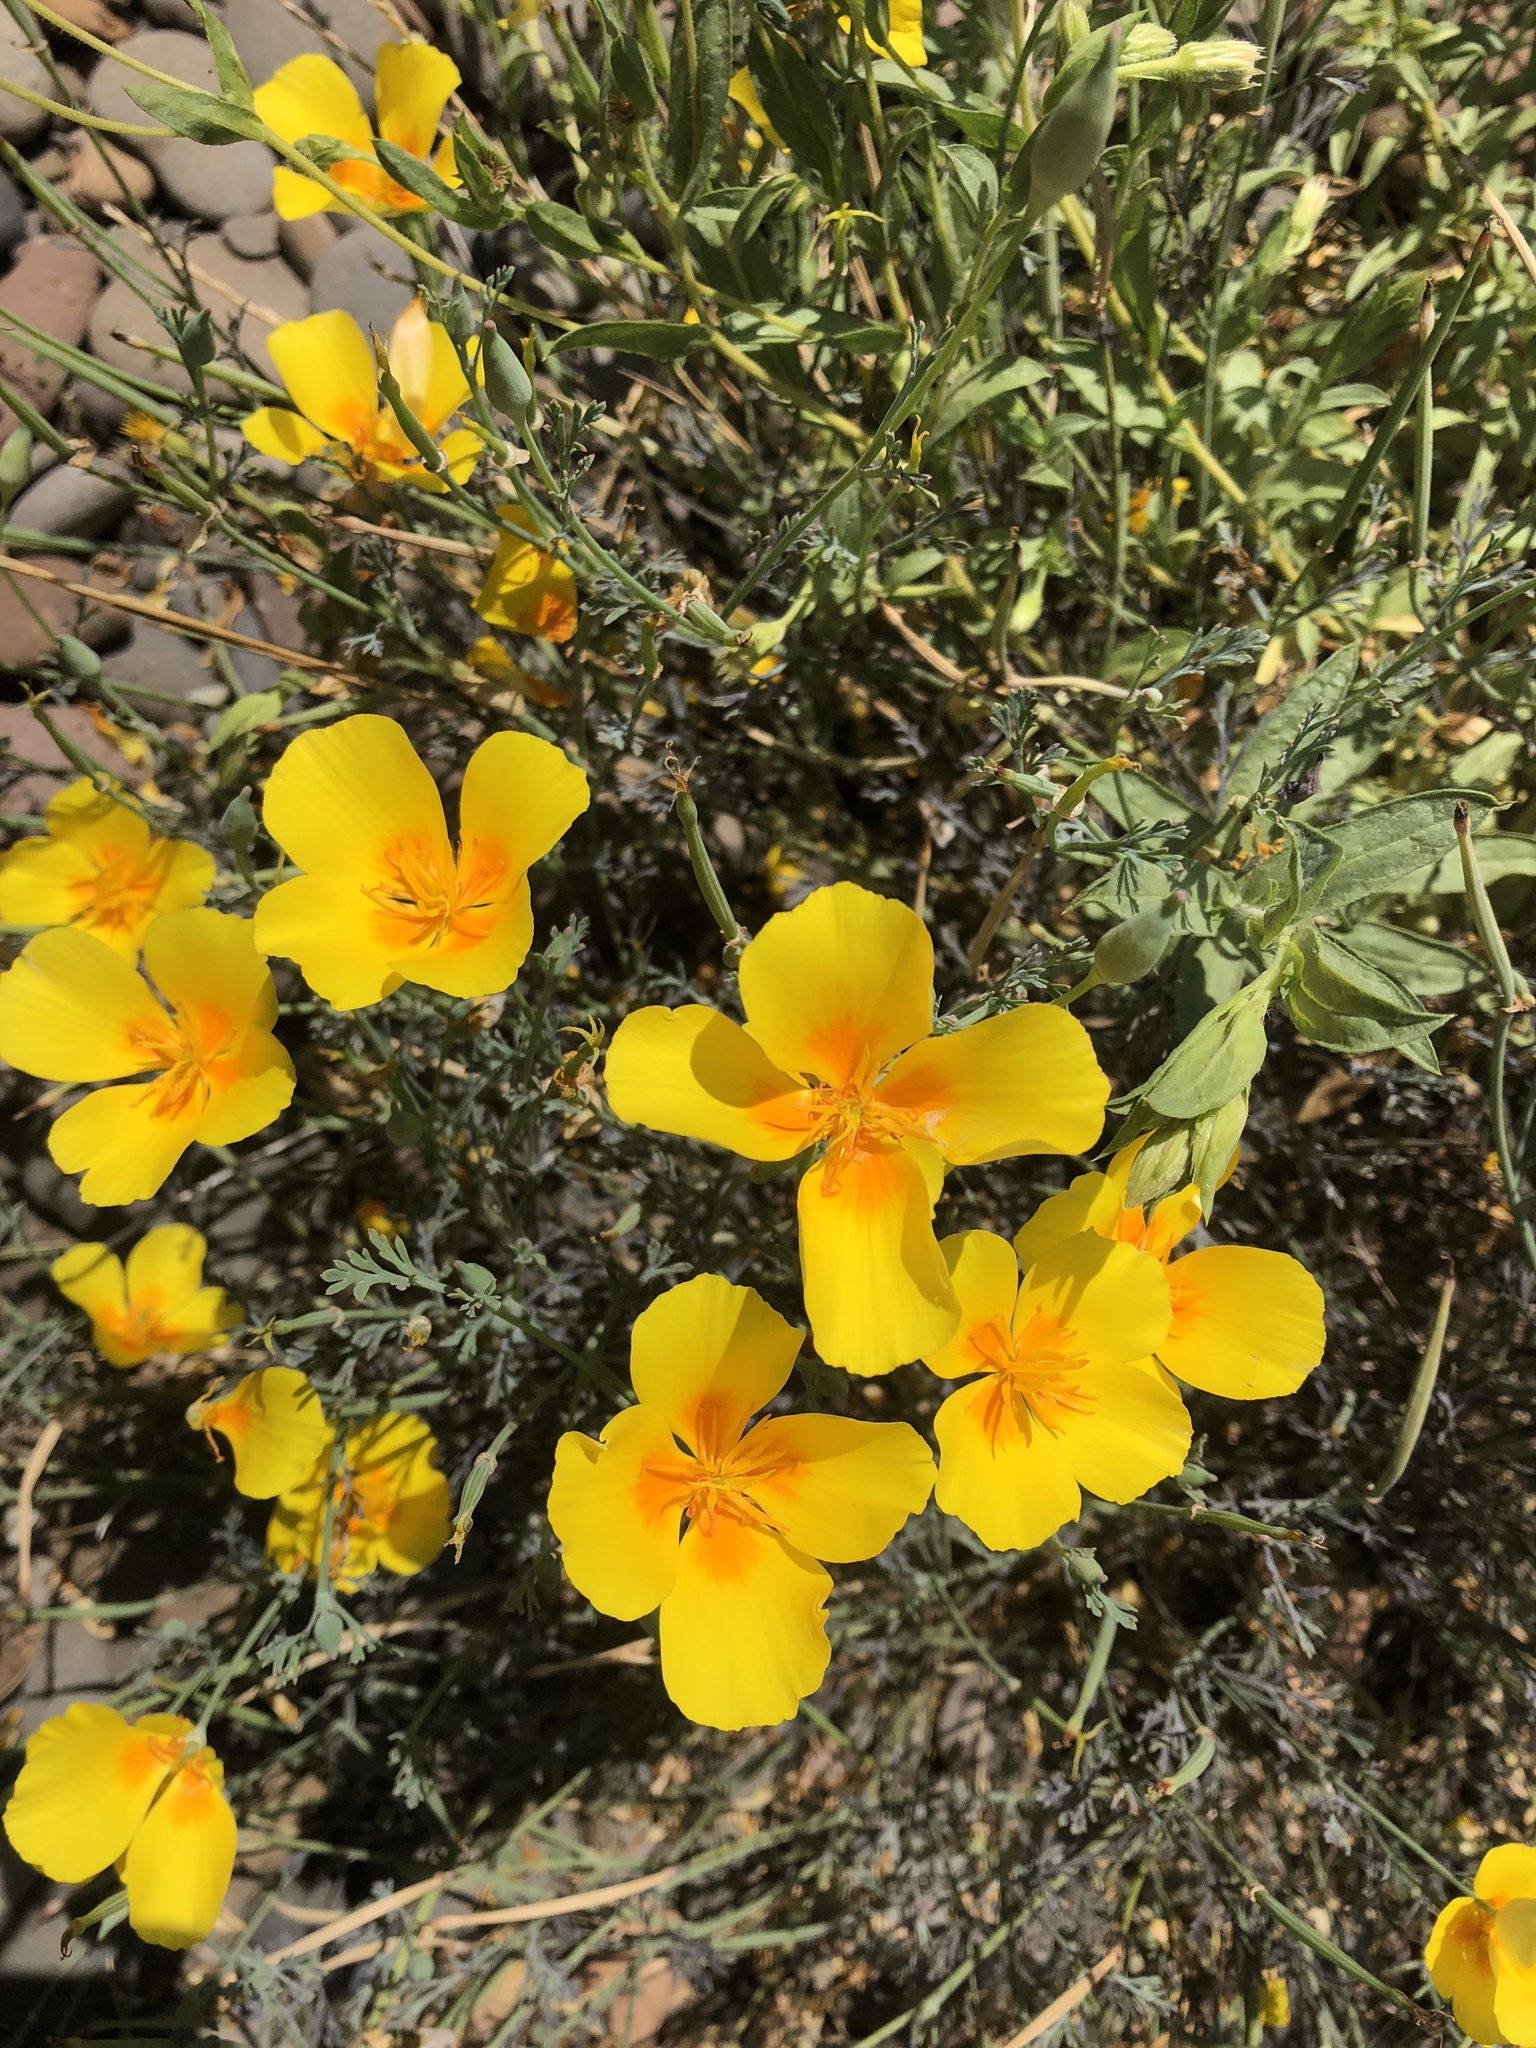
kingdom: Plantae
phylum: Tracheophyta
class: Magnoliopsida
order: Ranunculales
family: Papaveraceae
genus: Eschscholzia
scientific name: Eschscholzia californica
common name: California poppy
